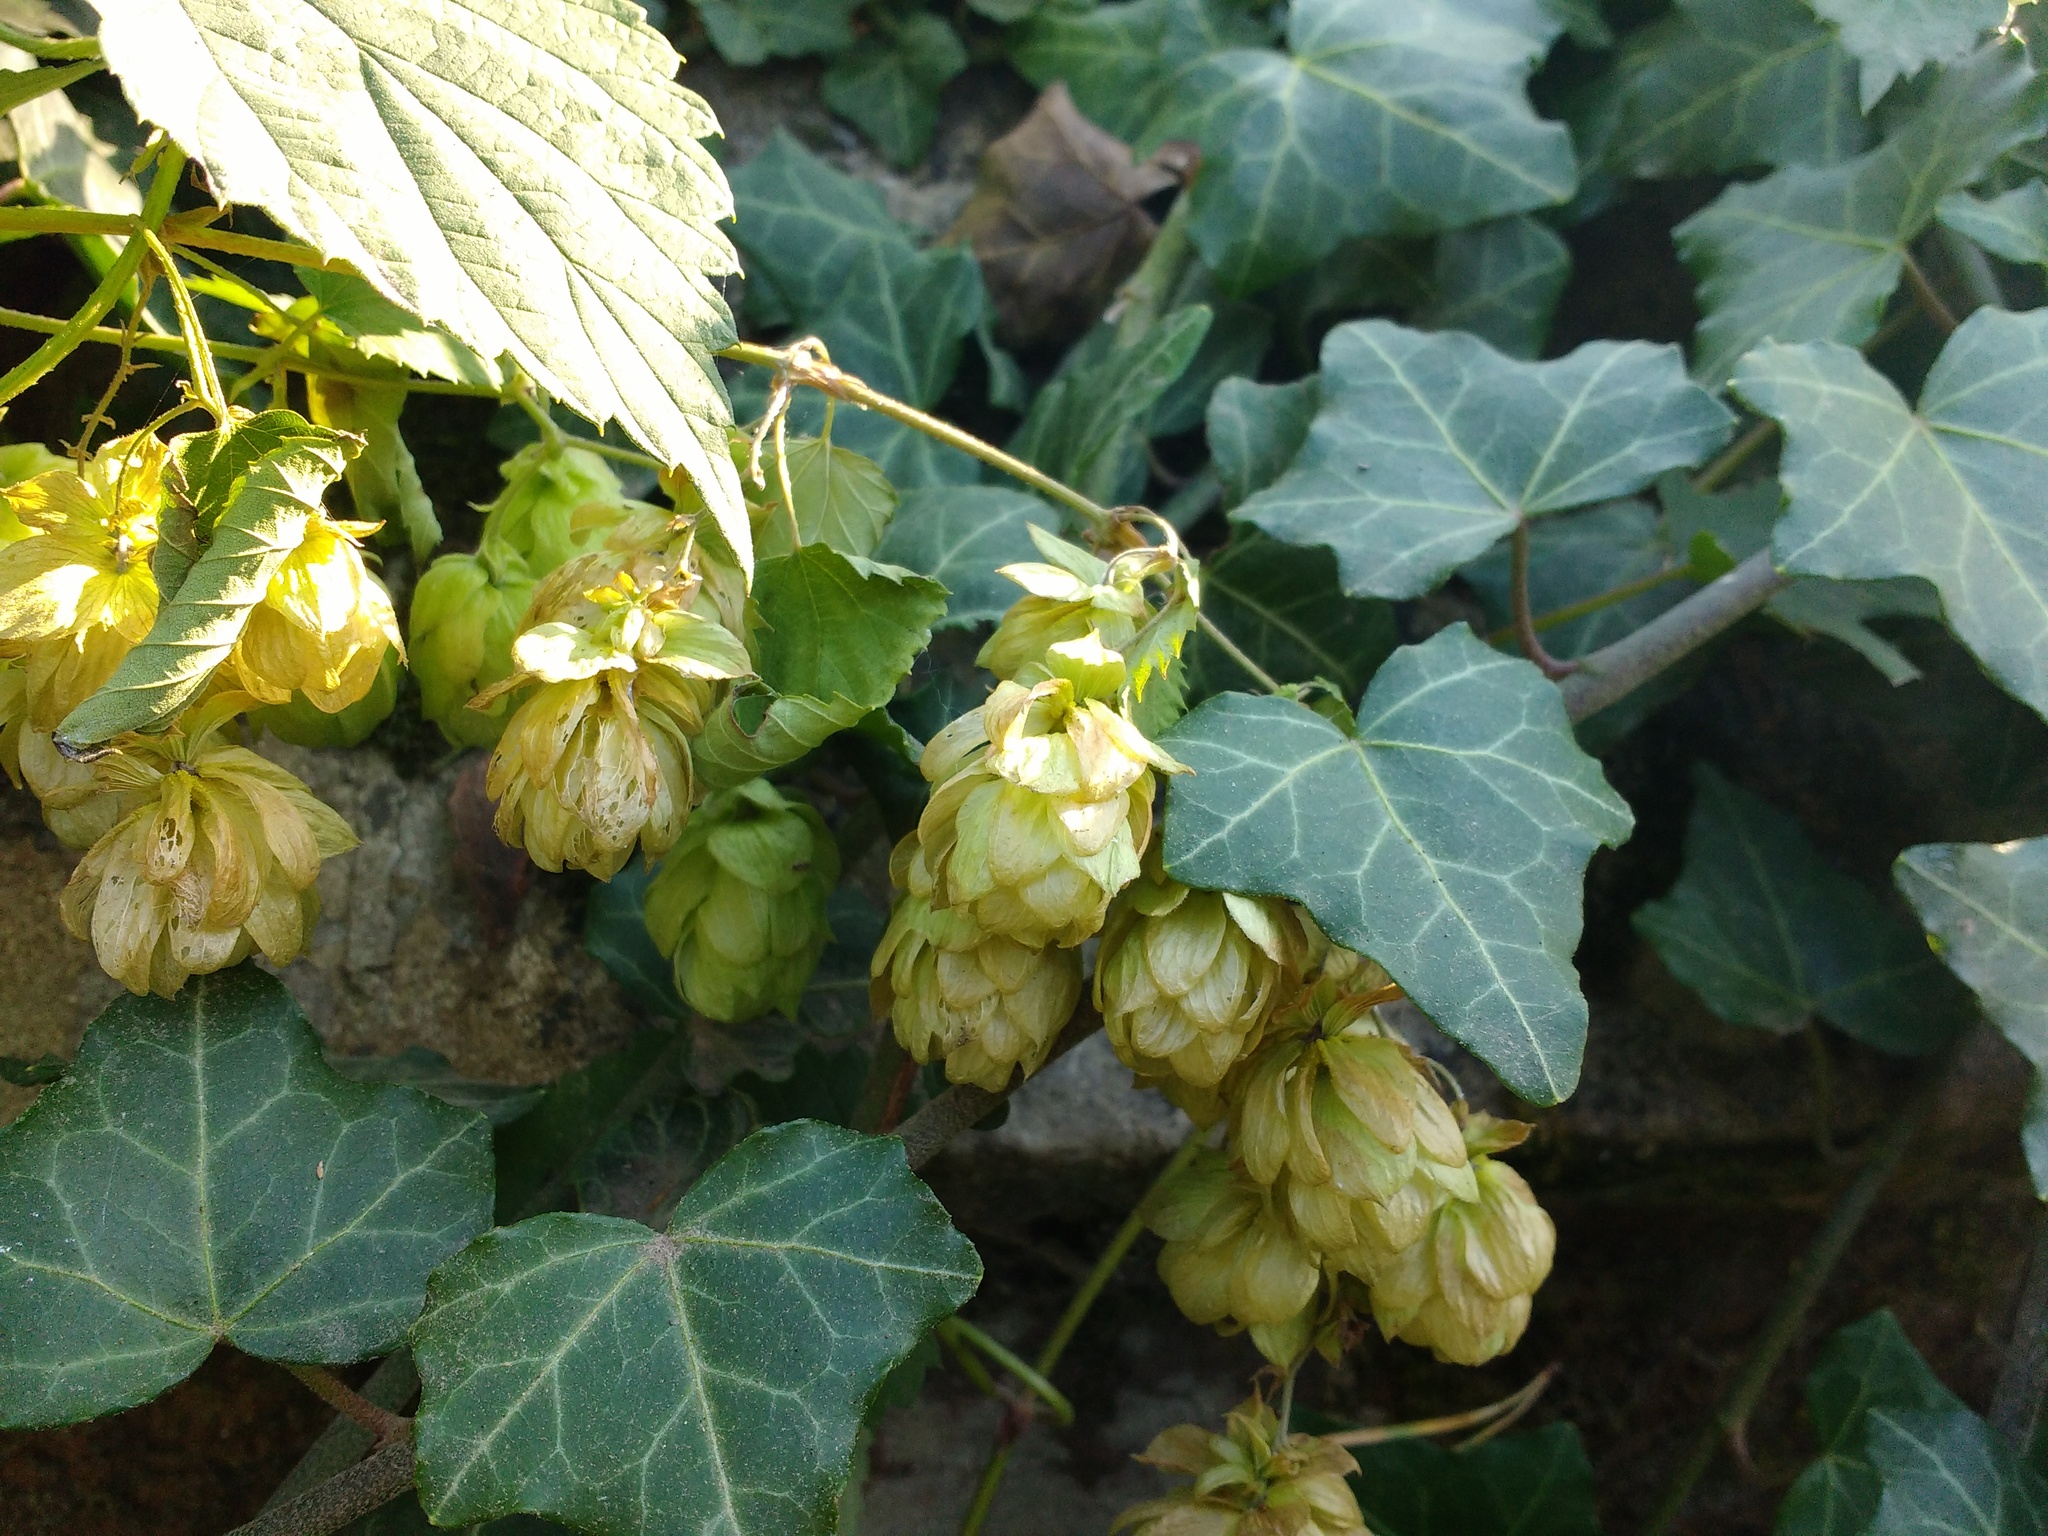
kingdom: Plantae
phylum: Tracheophyta
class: Magnoliopsida
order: Rosales
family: Cannabaceae
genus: Humulus
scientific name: Humulus lupulus
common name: Hop
